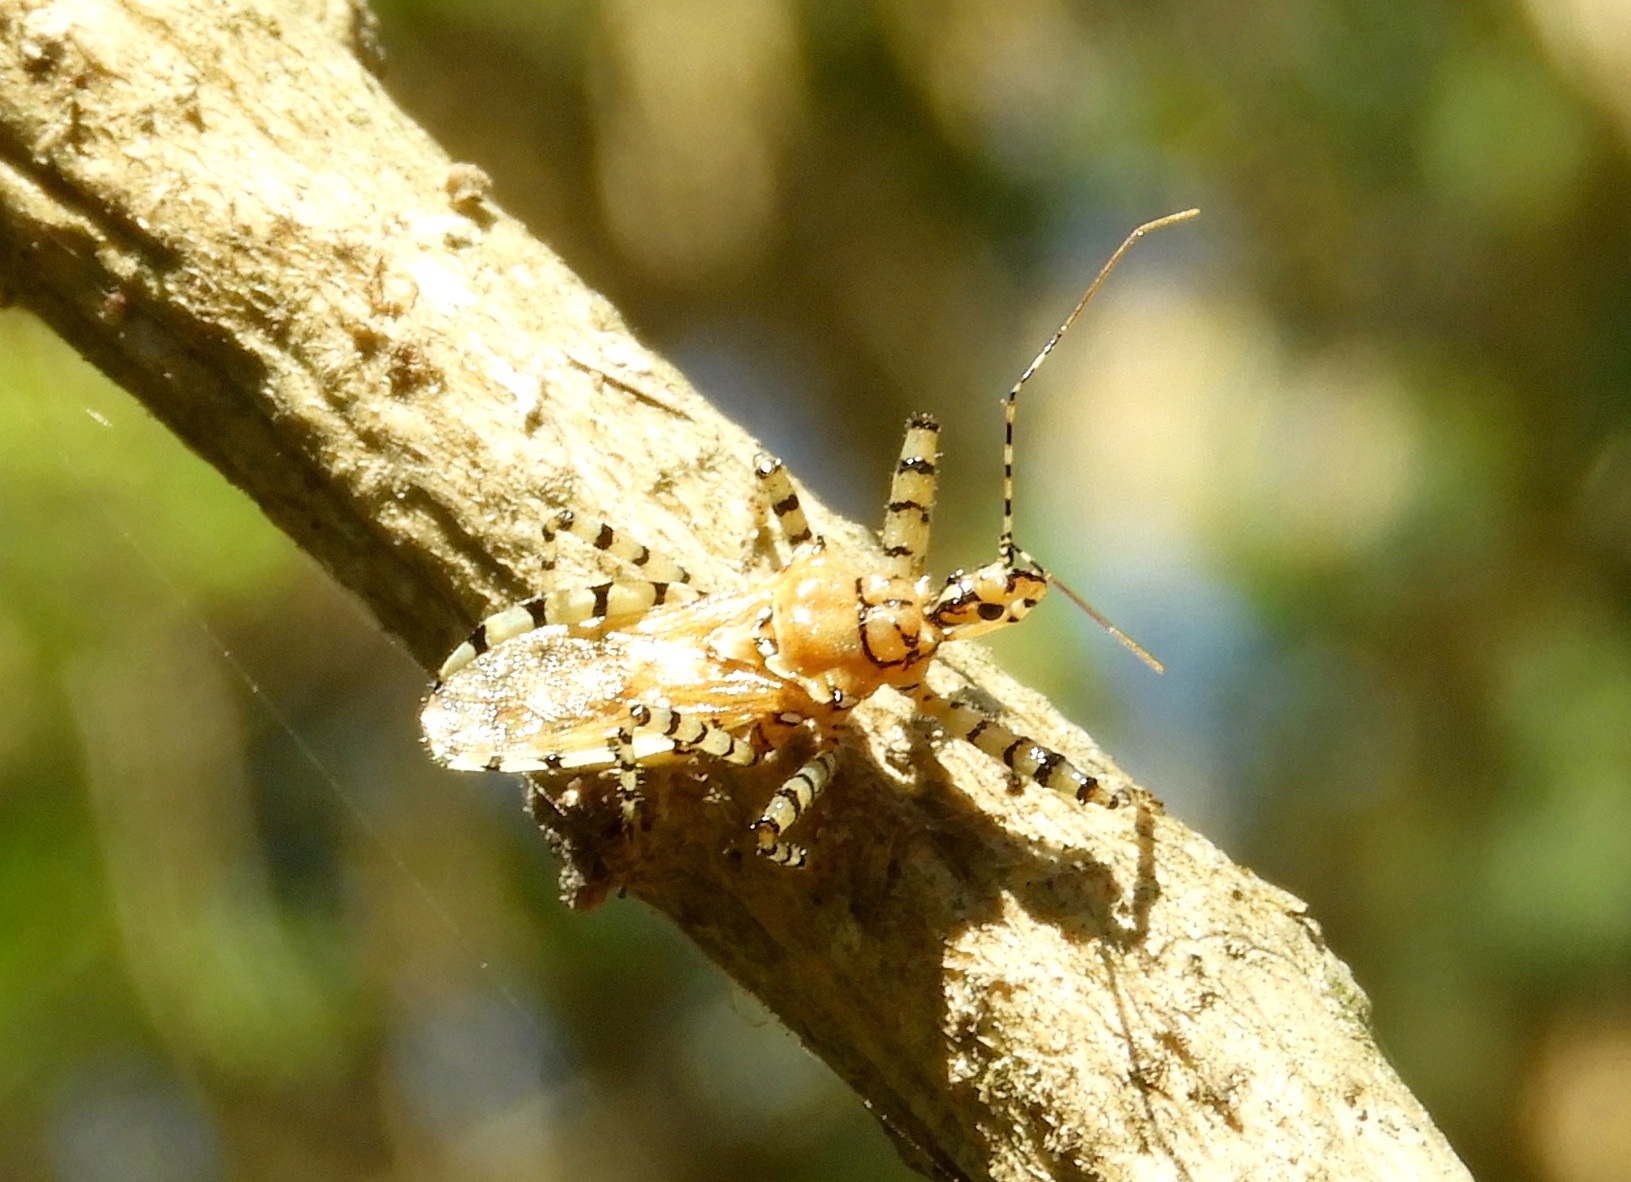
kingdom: Animalia
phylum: Arthropoda
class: Insecta
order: Hemiptera
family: Reduviidae
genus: Pselliopus
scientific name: Pselliopus
